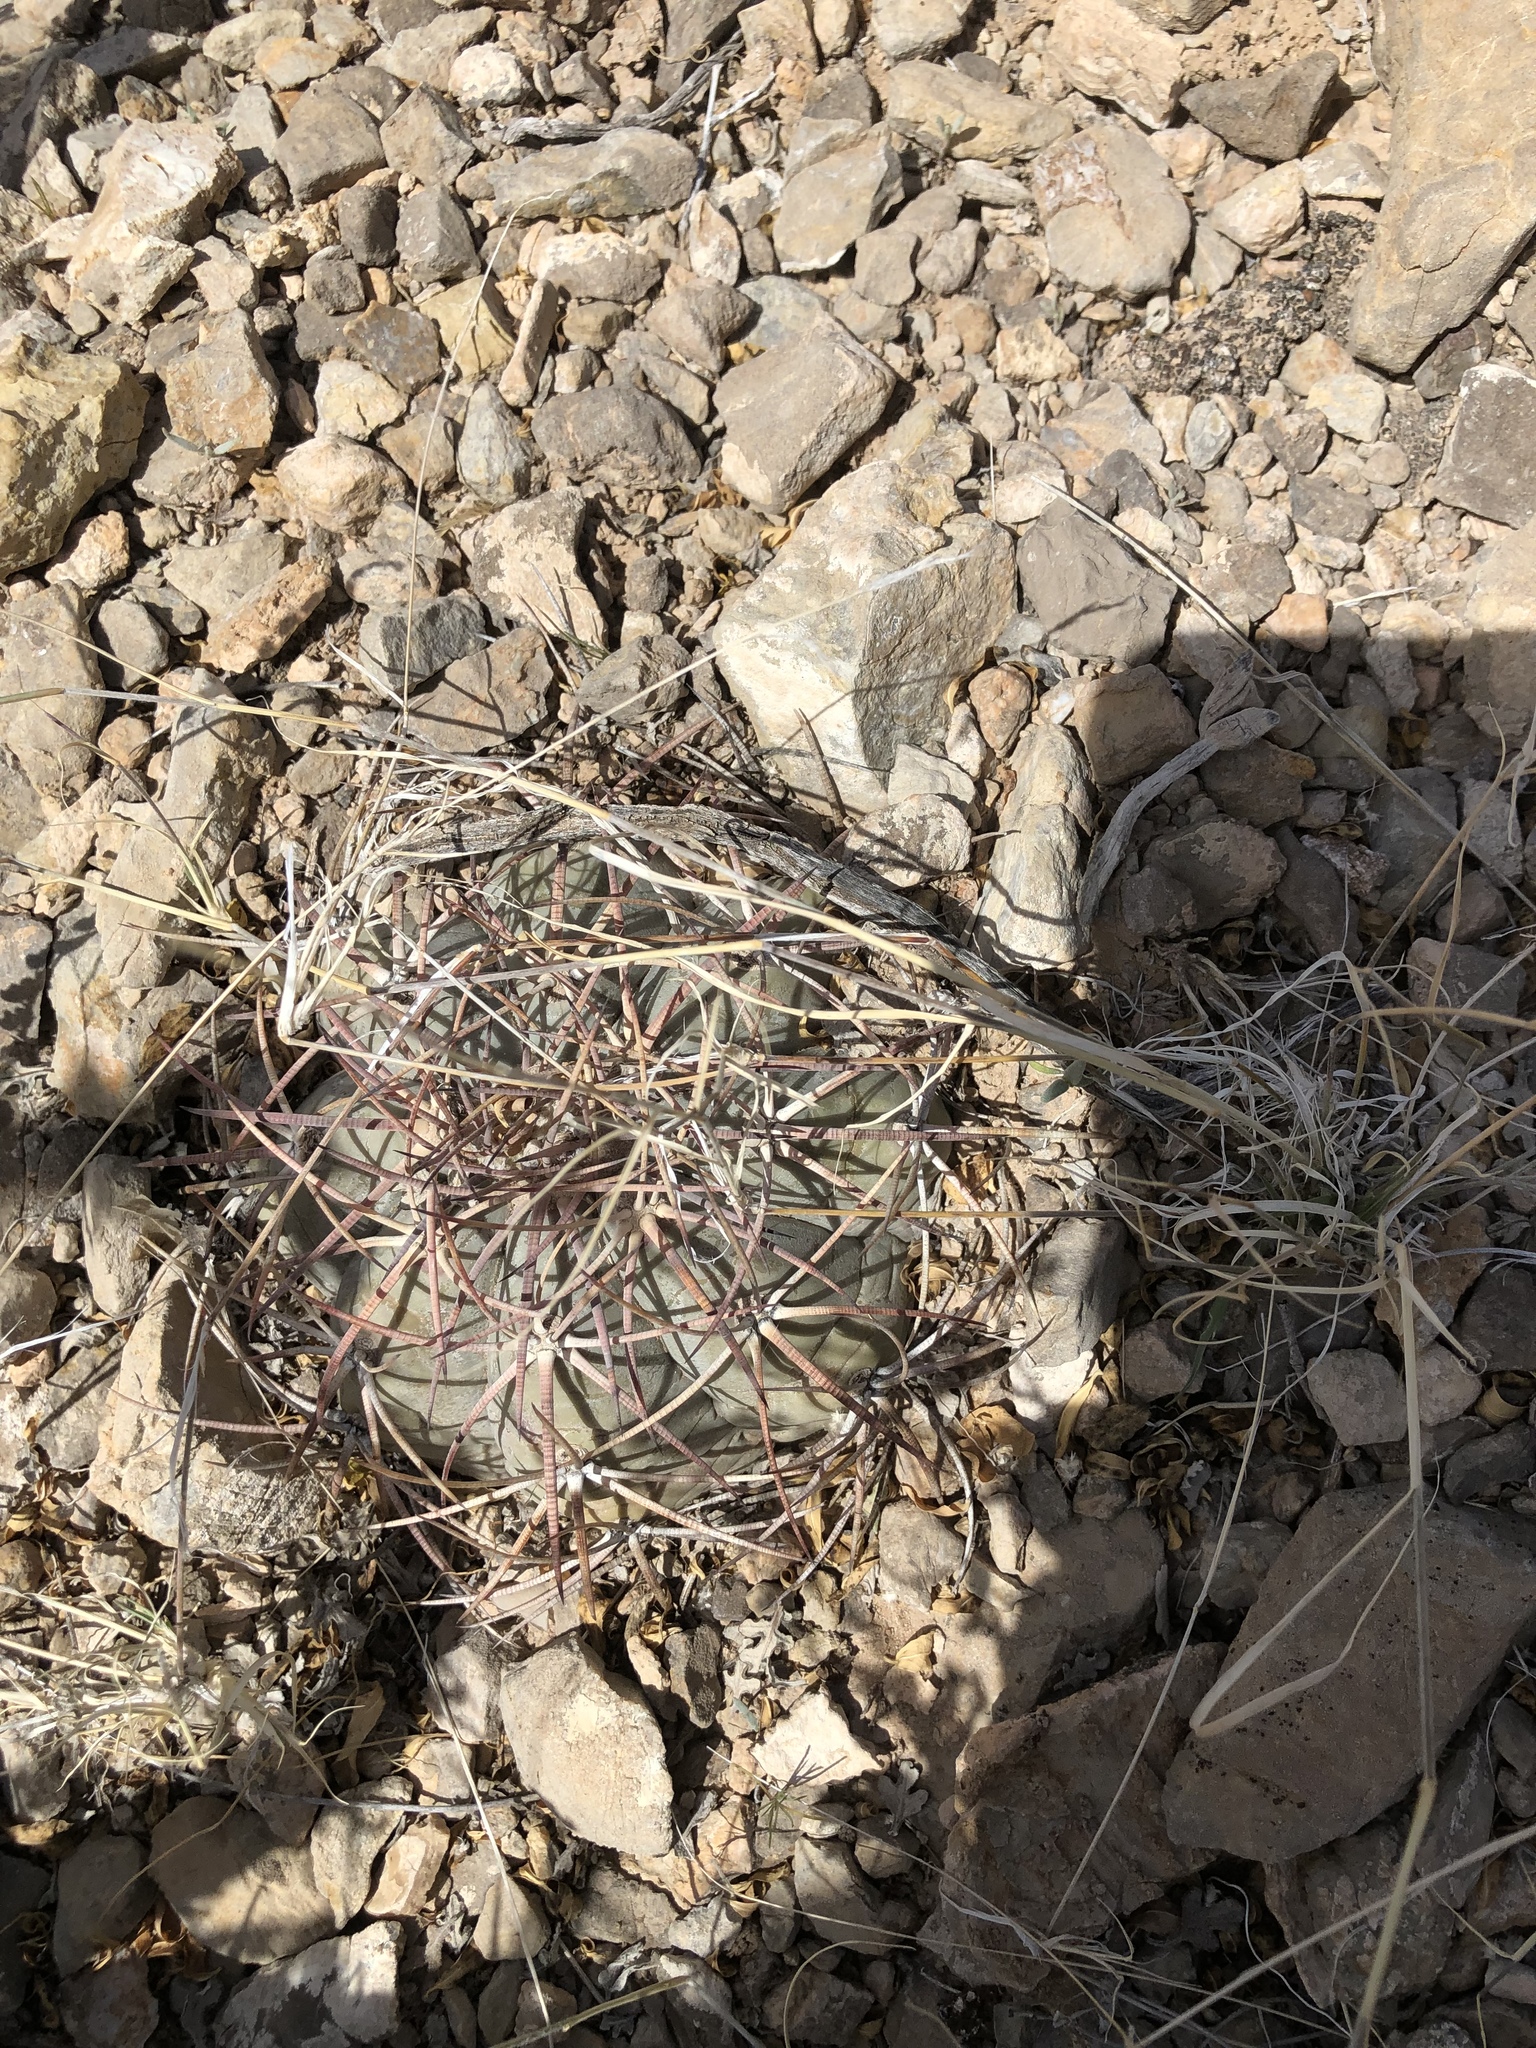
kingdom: Plantae
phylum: Tracheophyta
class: Magnoliopsida
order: Caryophyllales
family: Cactaceae
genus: Echinocactus
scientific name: Echinocactus horizonthalonius
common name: Devilshead
